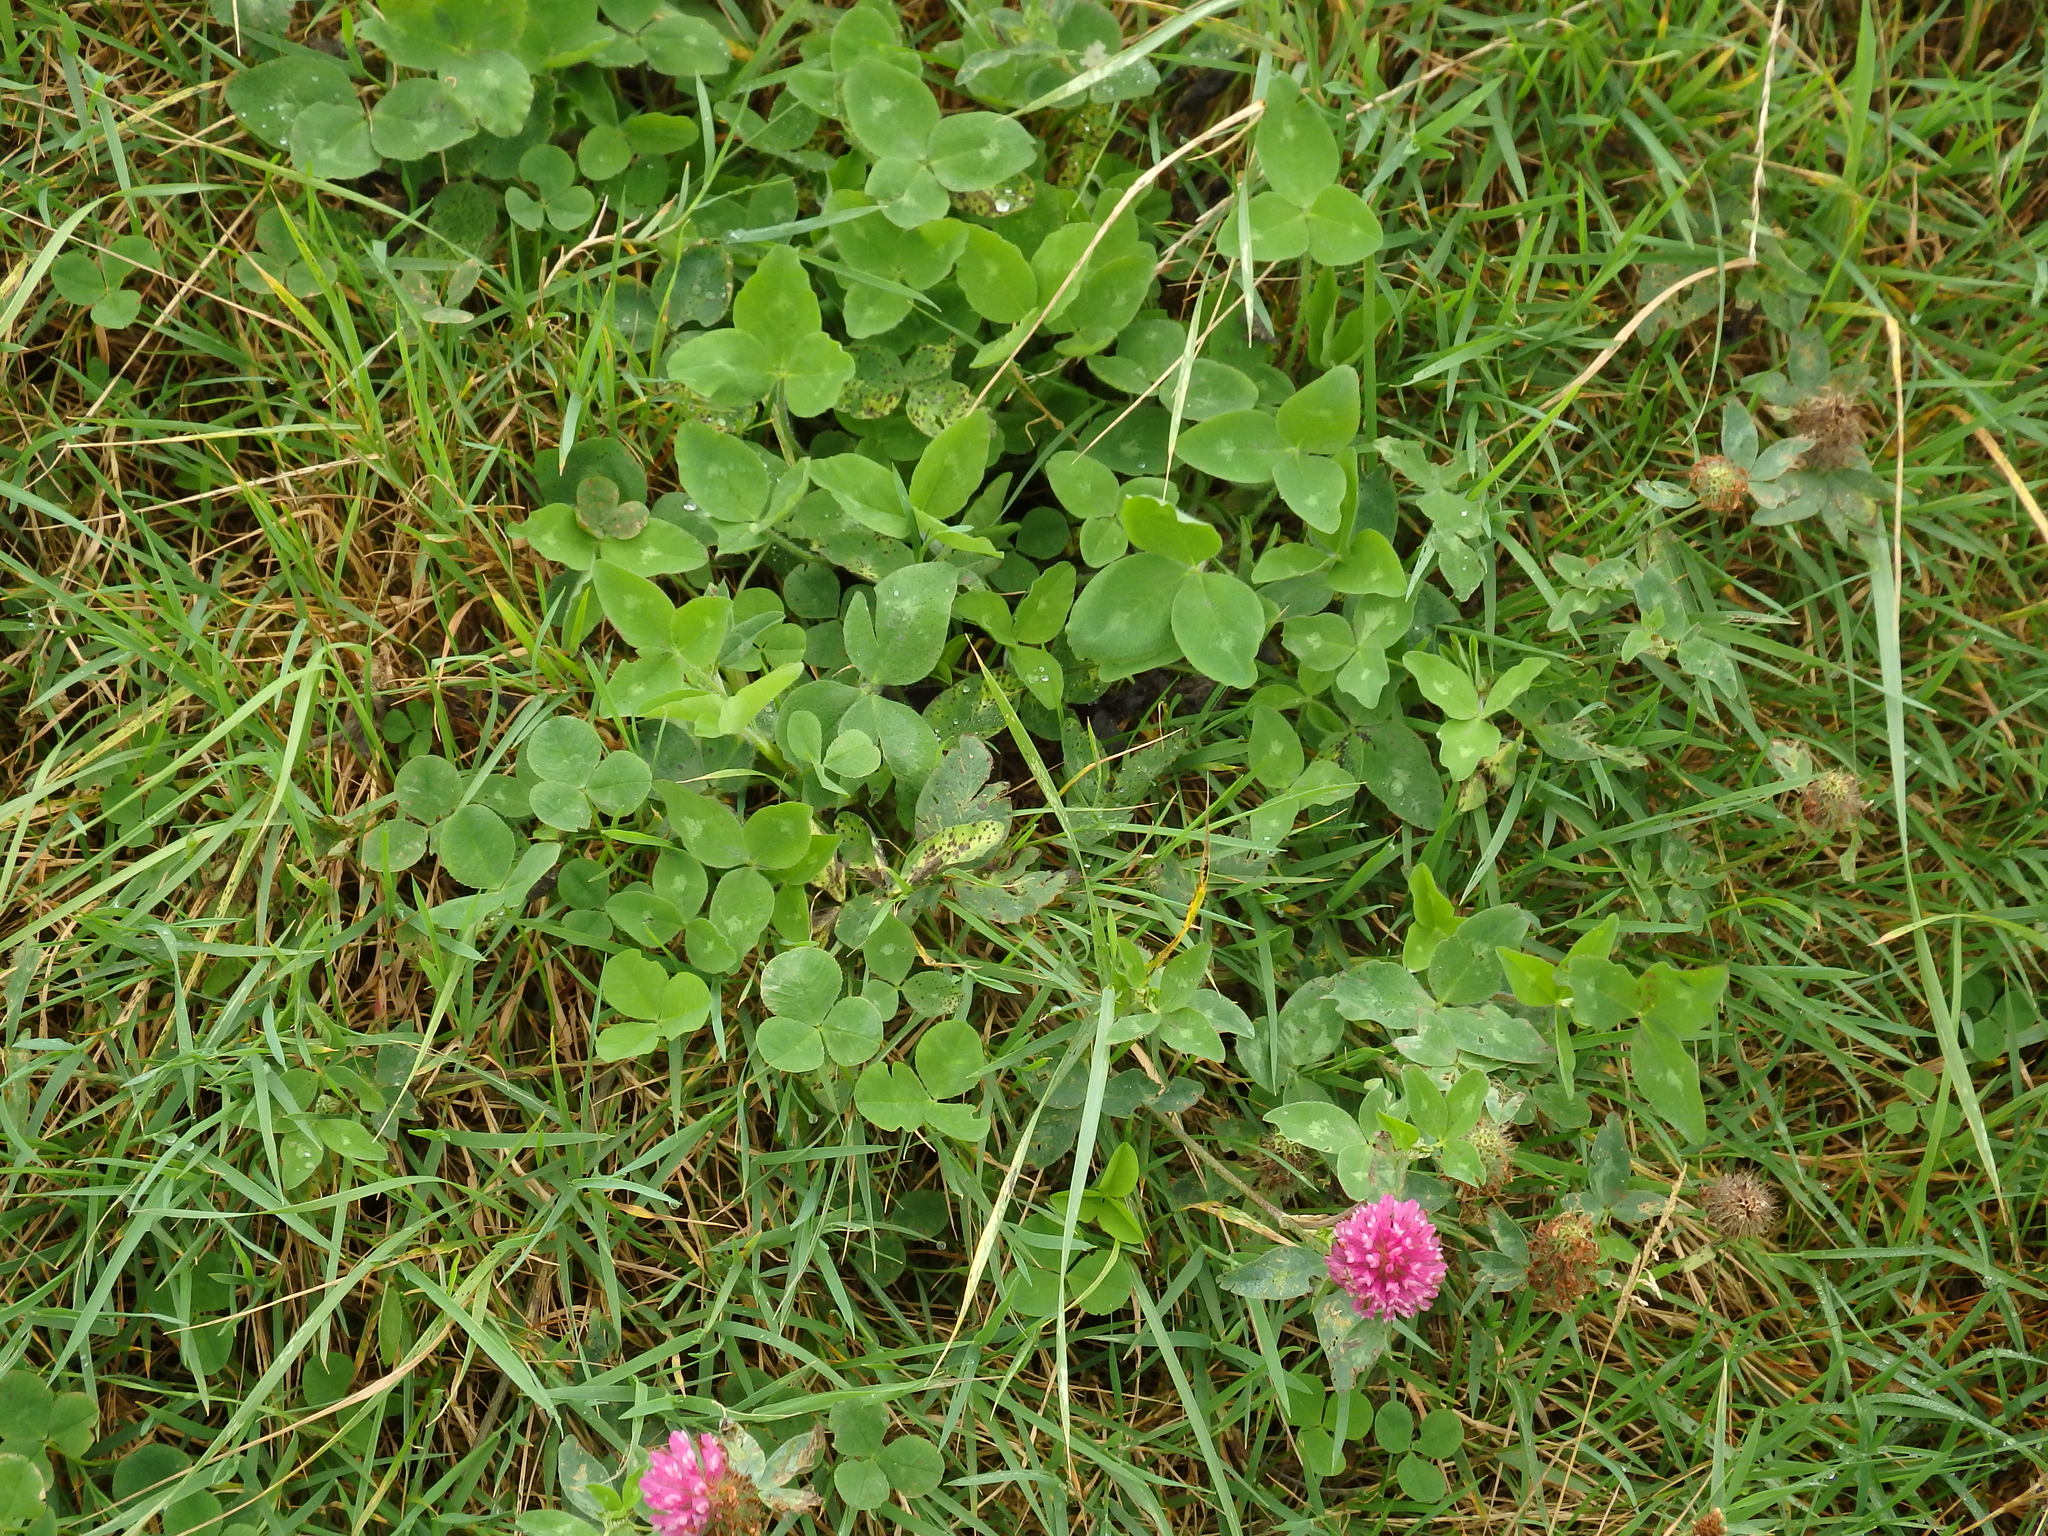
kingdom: Plantae
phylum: Tracheophyta
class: Magnoliopsida
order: Fabales
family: Fabaceae
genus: Trifolium
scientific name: Trifolium pratense
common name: Red clover
